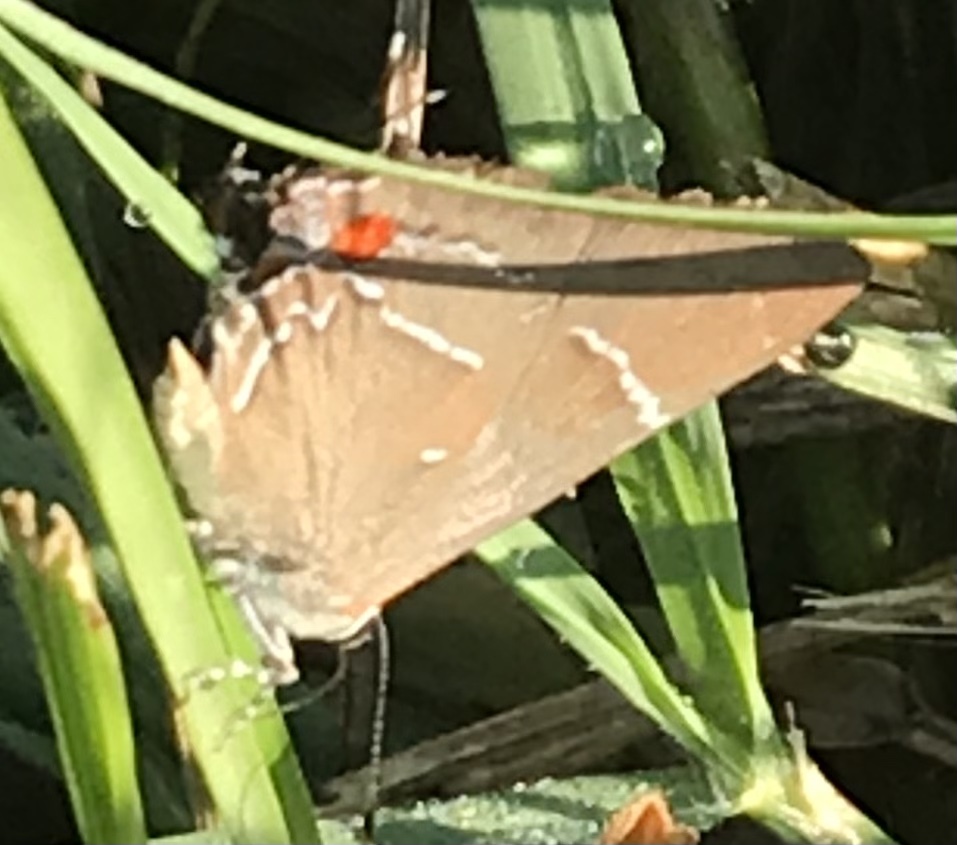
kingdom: Animalia
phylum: Arthropoda
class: Insecta
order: Lepidoptera
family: Lycaenidae
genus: Parrhasius
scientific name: Parrhasius m-album
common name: White m hairstreak
